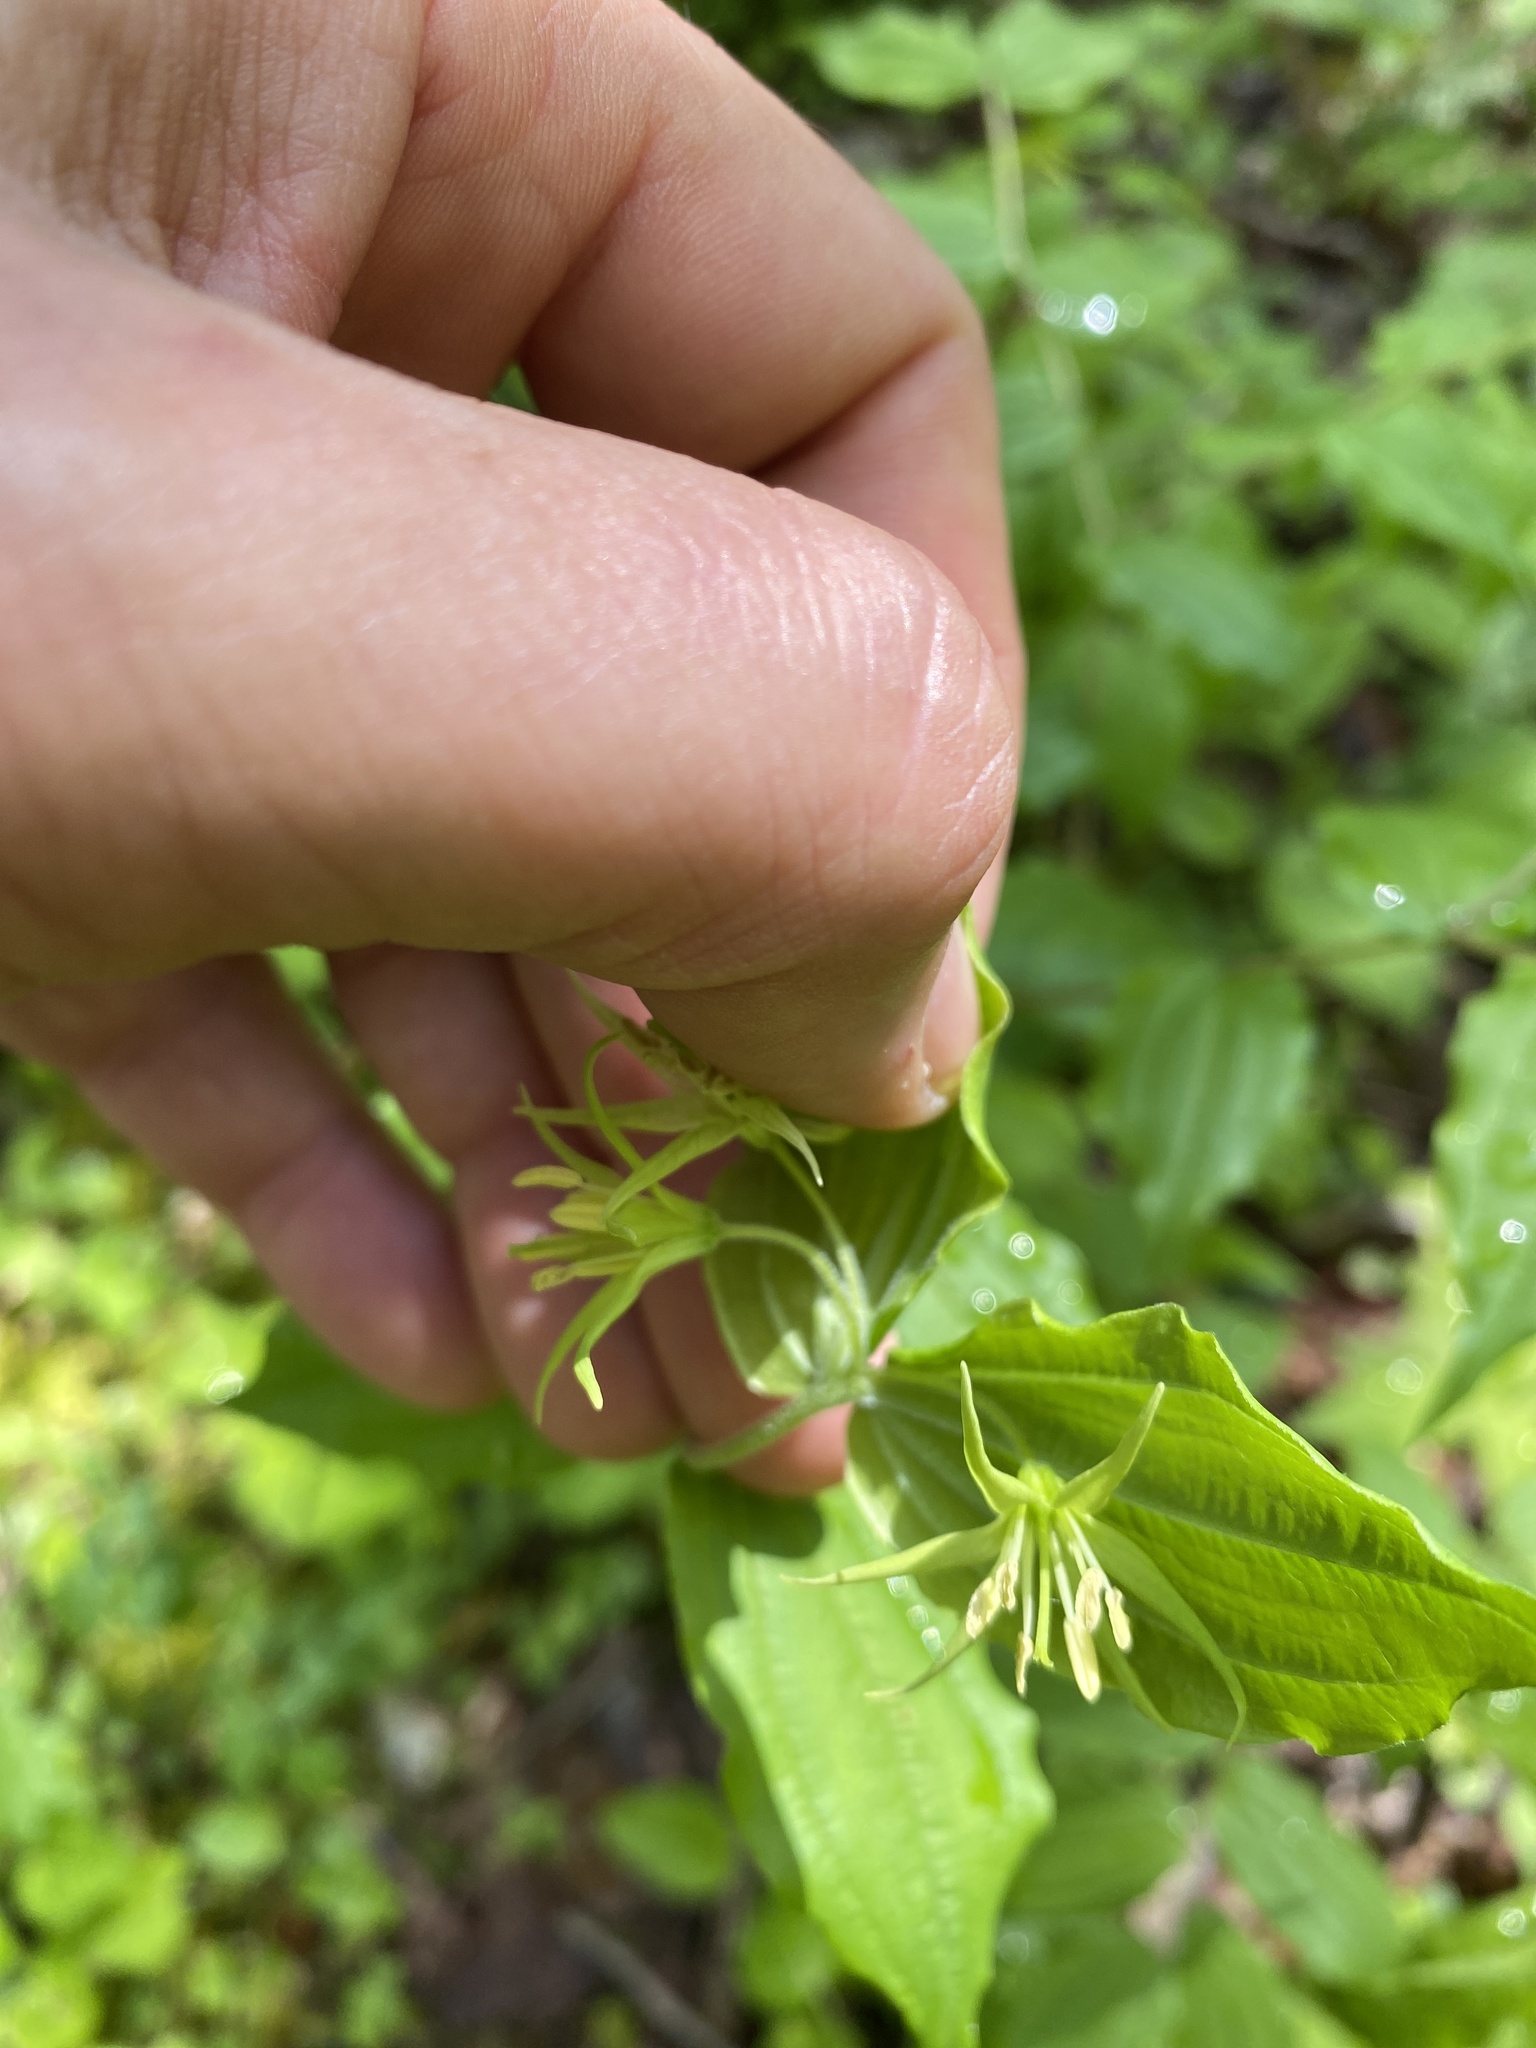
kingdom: Plantae
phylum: Tracheophyta
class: Liliopsida
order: Liliales
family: Liliaceae
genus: Prosartes
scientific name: Prosartes lanuginosa
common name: Hairy mandarin
